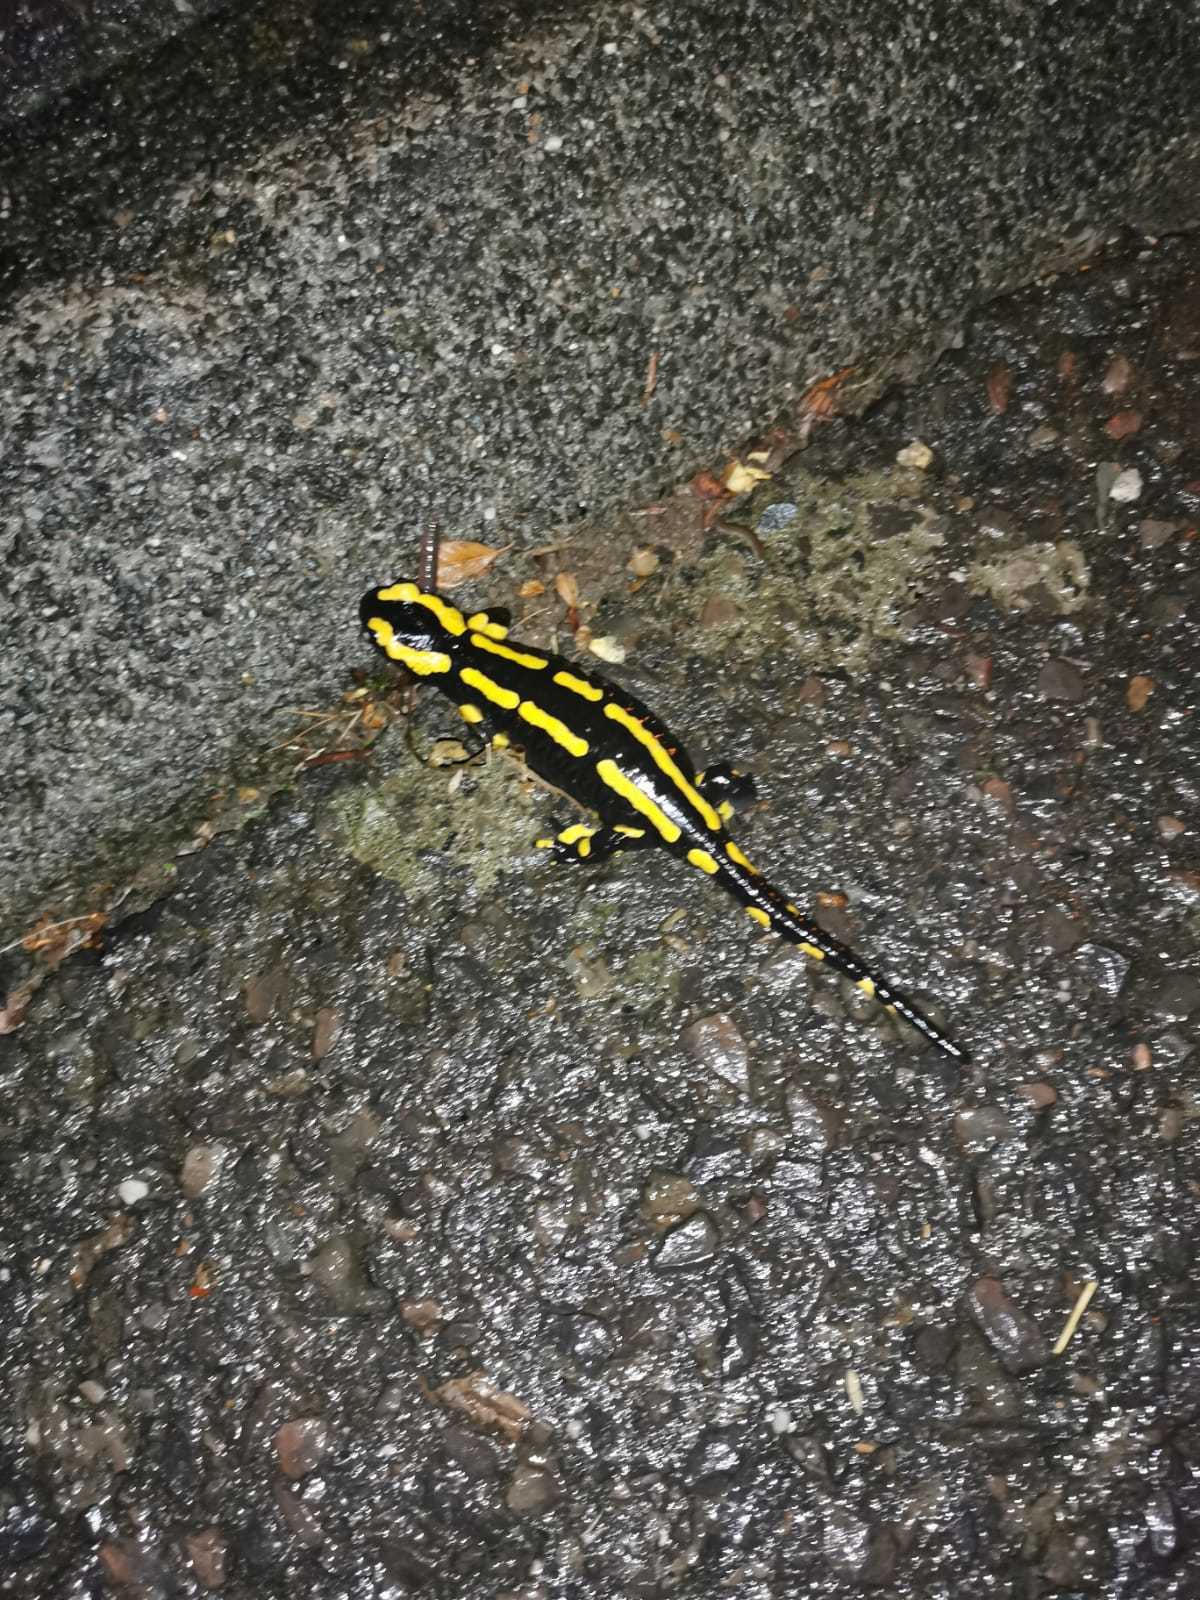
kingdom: Animalia
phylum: Chordata
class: Amphibia
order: Caudata
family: Salamandridae
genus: Salamandra
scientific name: Salamandra salamandra
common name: Fire salamander
